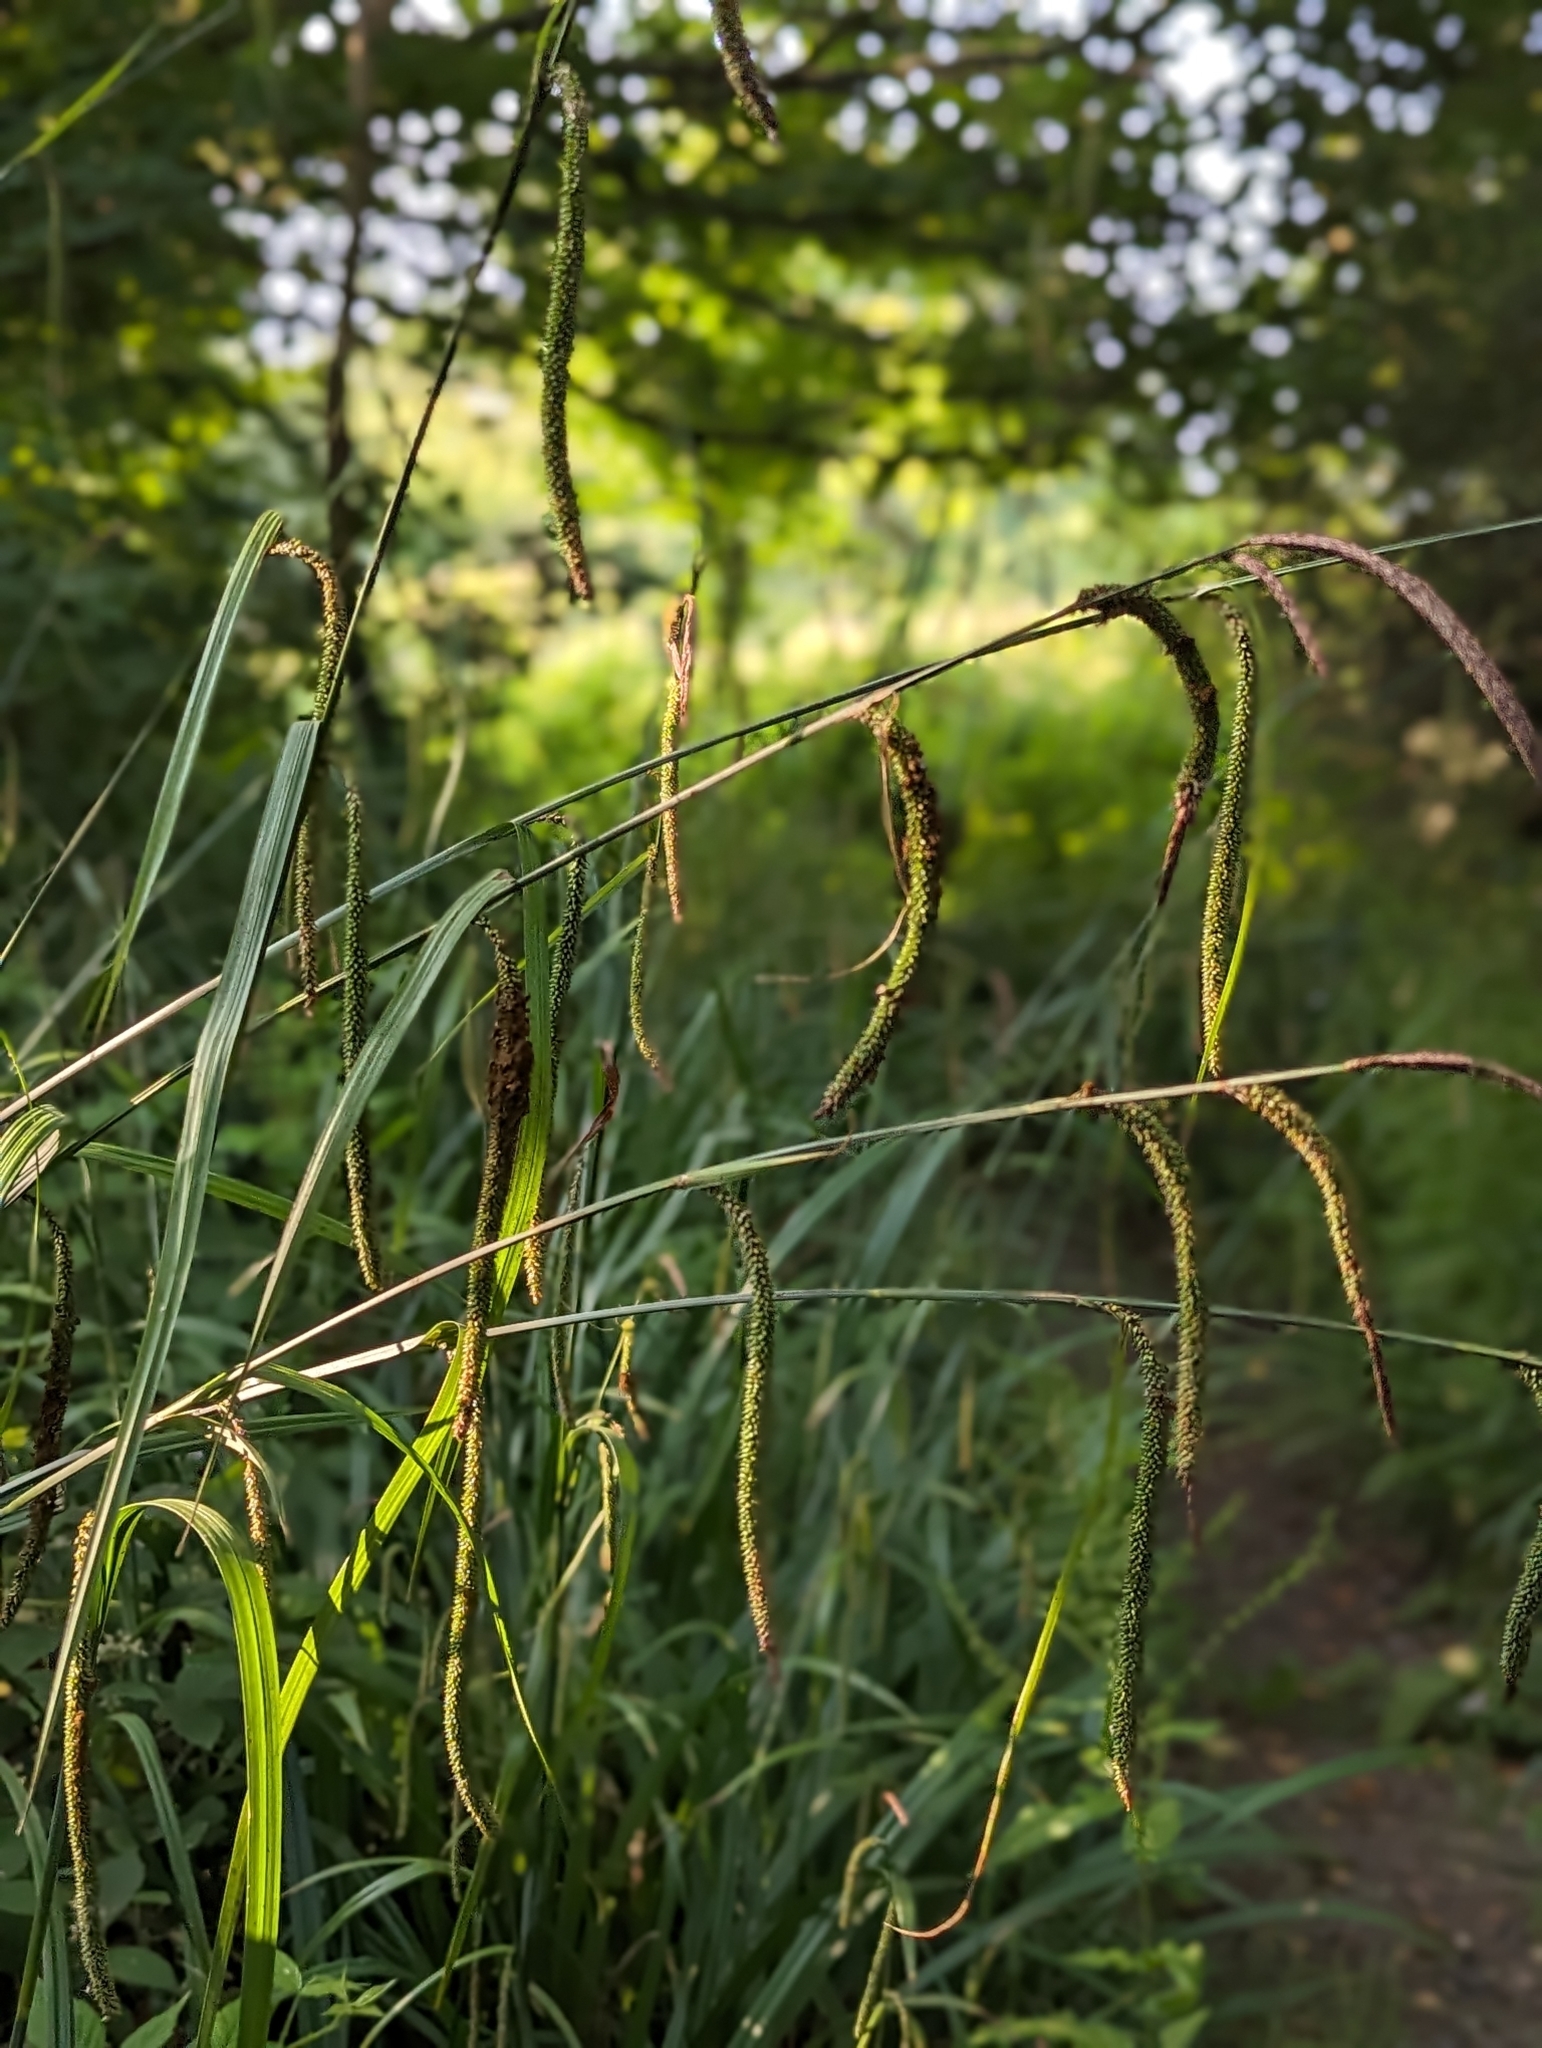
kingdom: Plantae
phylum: Tracheophyta
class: Liliopsida
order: Poales
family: Cyperaceae
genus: Carex
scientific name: Carex pendula
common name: Pendulous sedge
